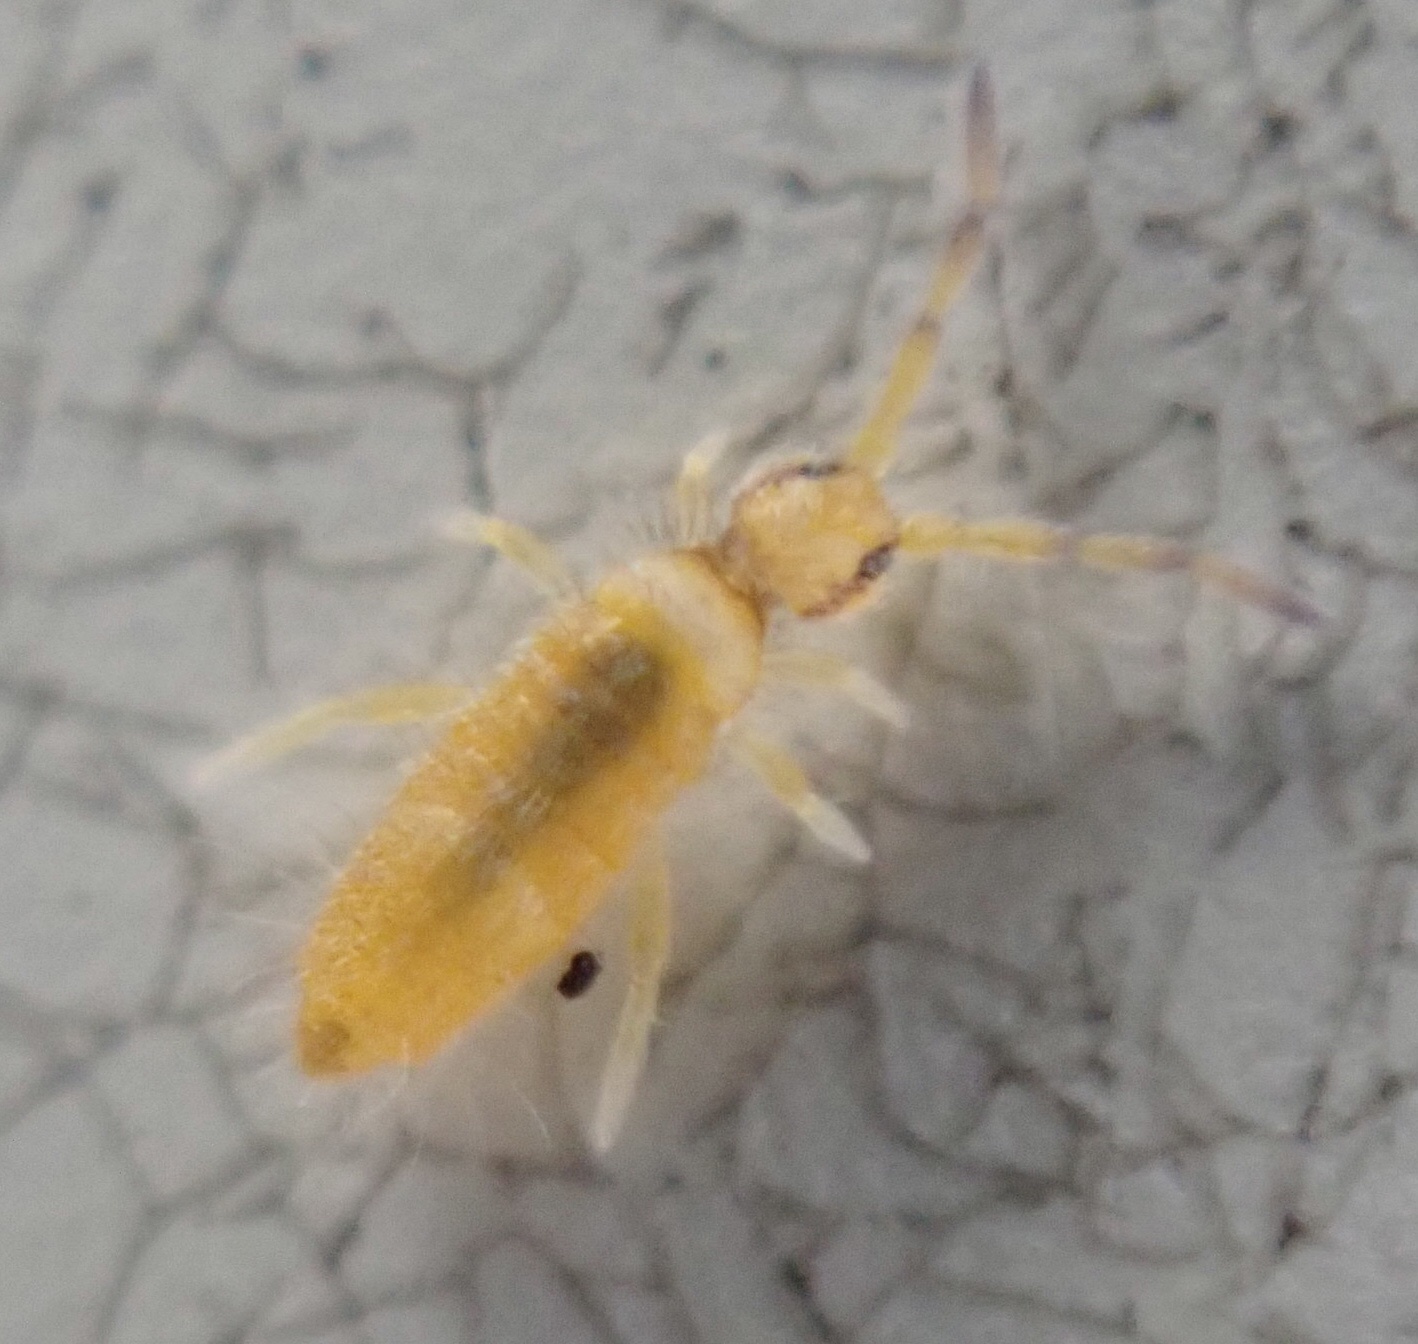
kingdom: Animalia
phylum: Arthropoda
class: Collembola
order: Entomobryomorpha
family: Entomobryidae
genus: Entomobrya
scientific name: Entomobrya atrocincta
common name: Springtail
